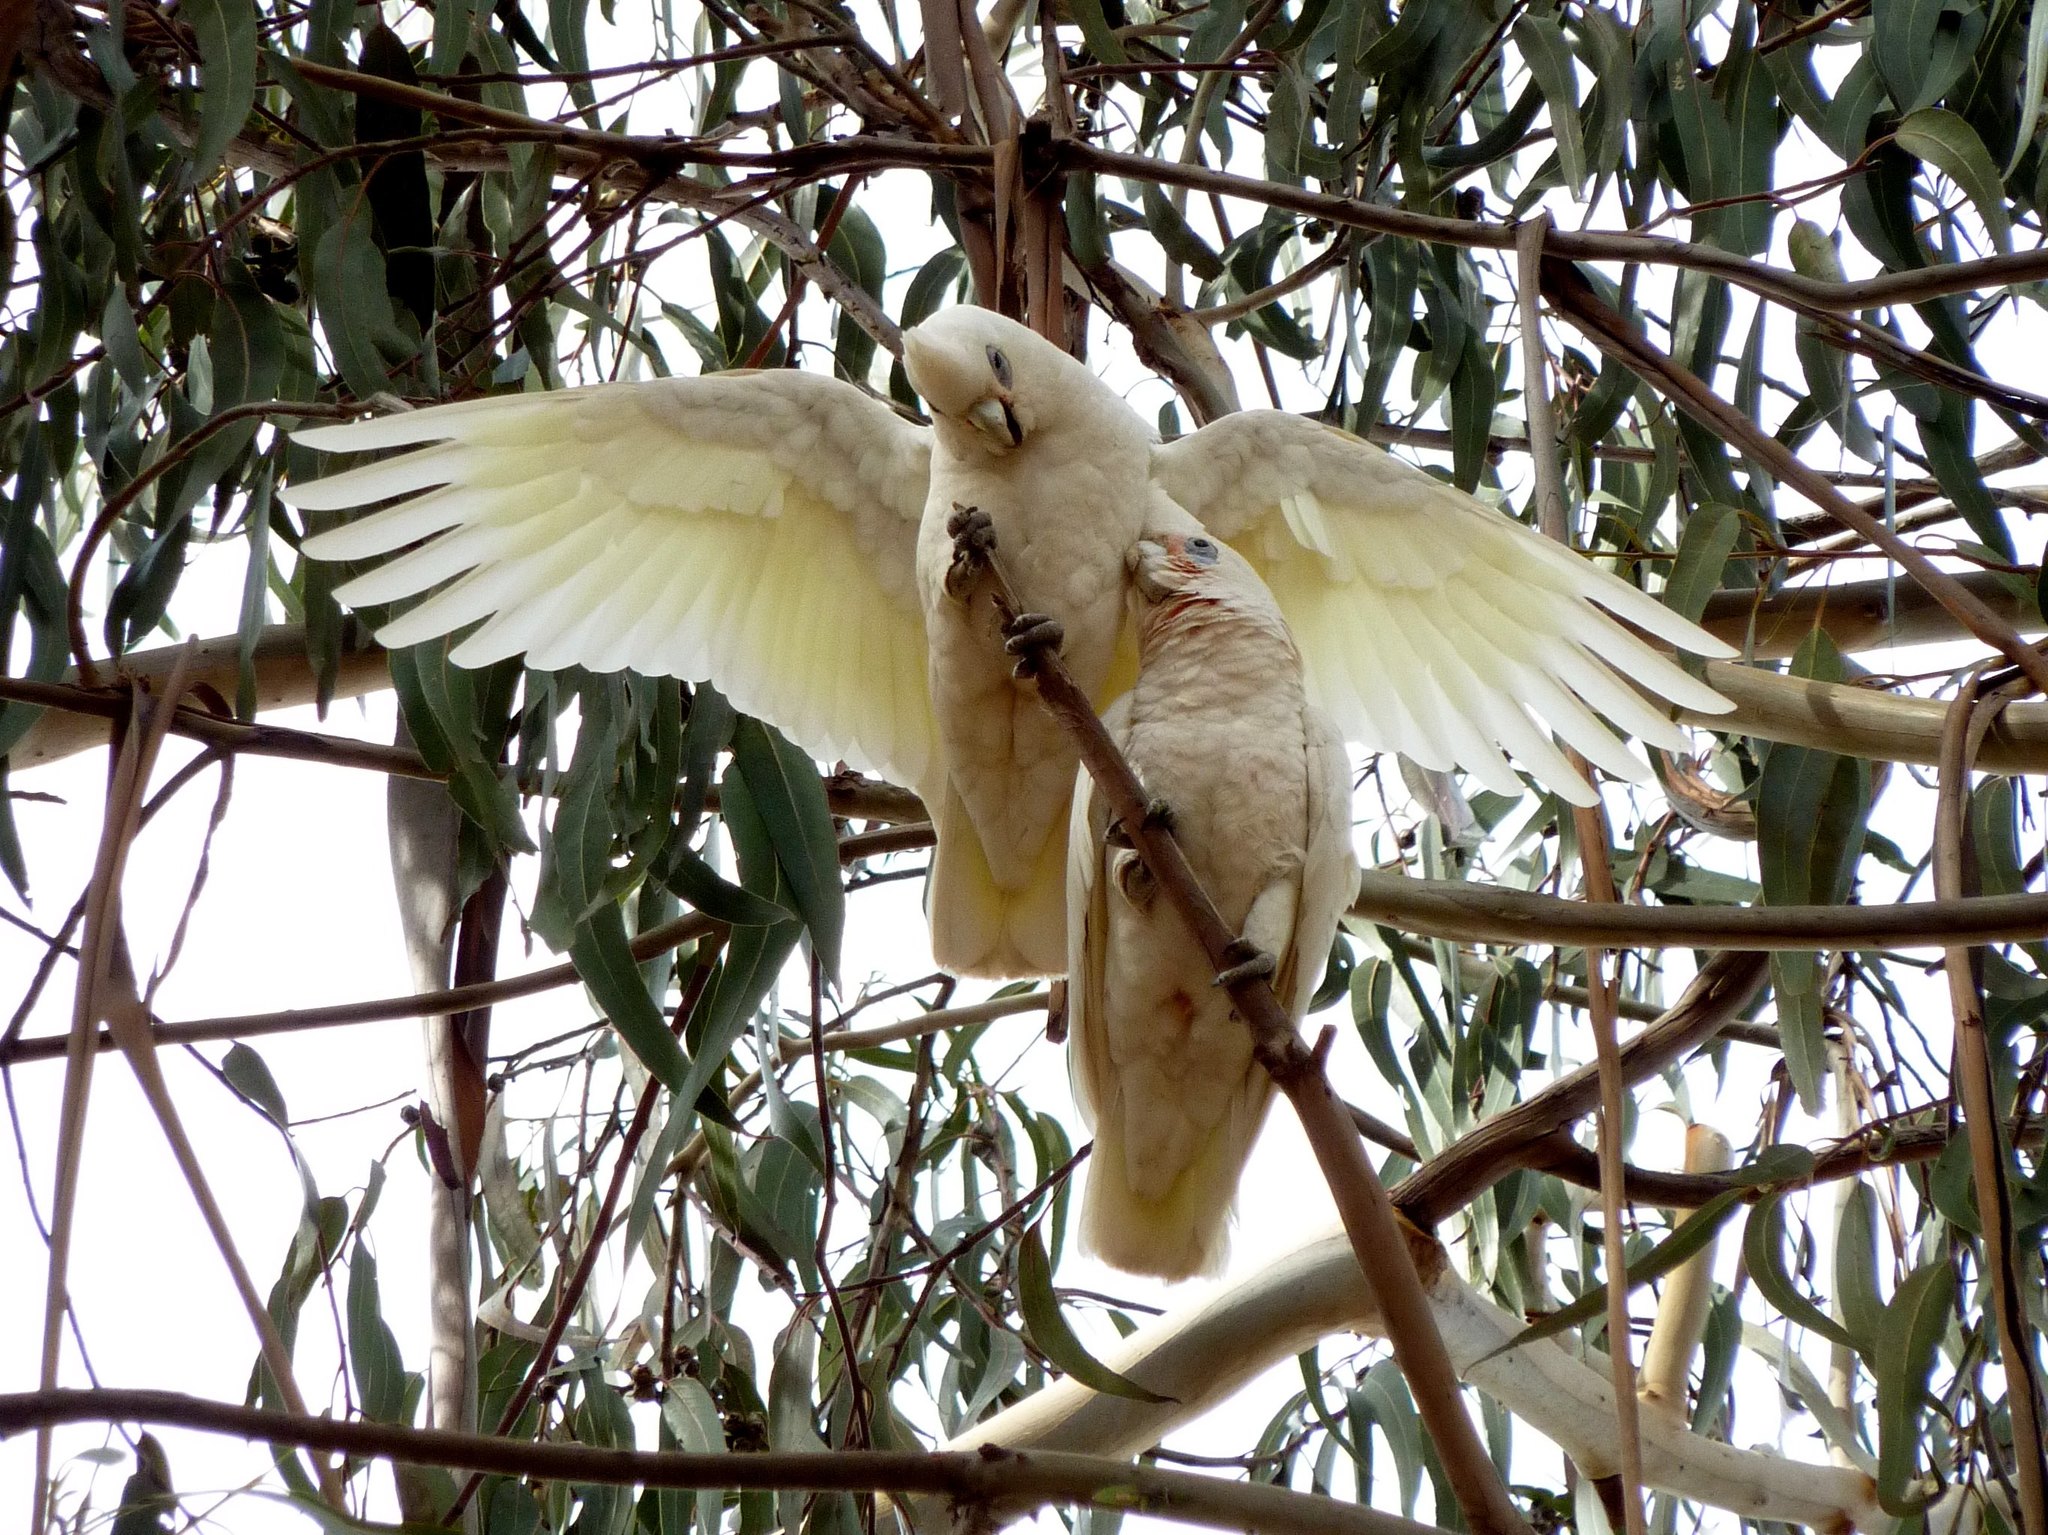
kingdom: Animalia
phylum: Chordata
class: Aves
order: Psittaciformes
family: Psittacidae
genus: Cacatua
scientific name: Cacatua sanguinea
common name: Little corella
